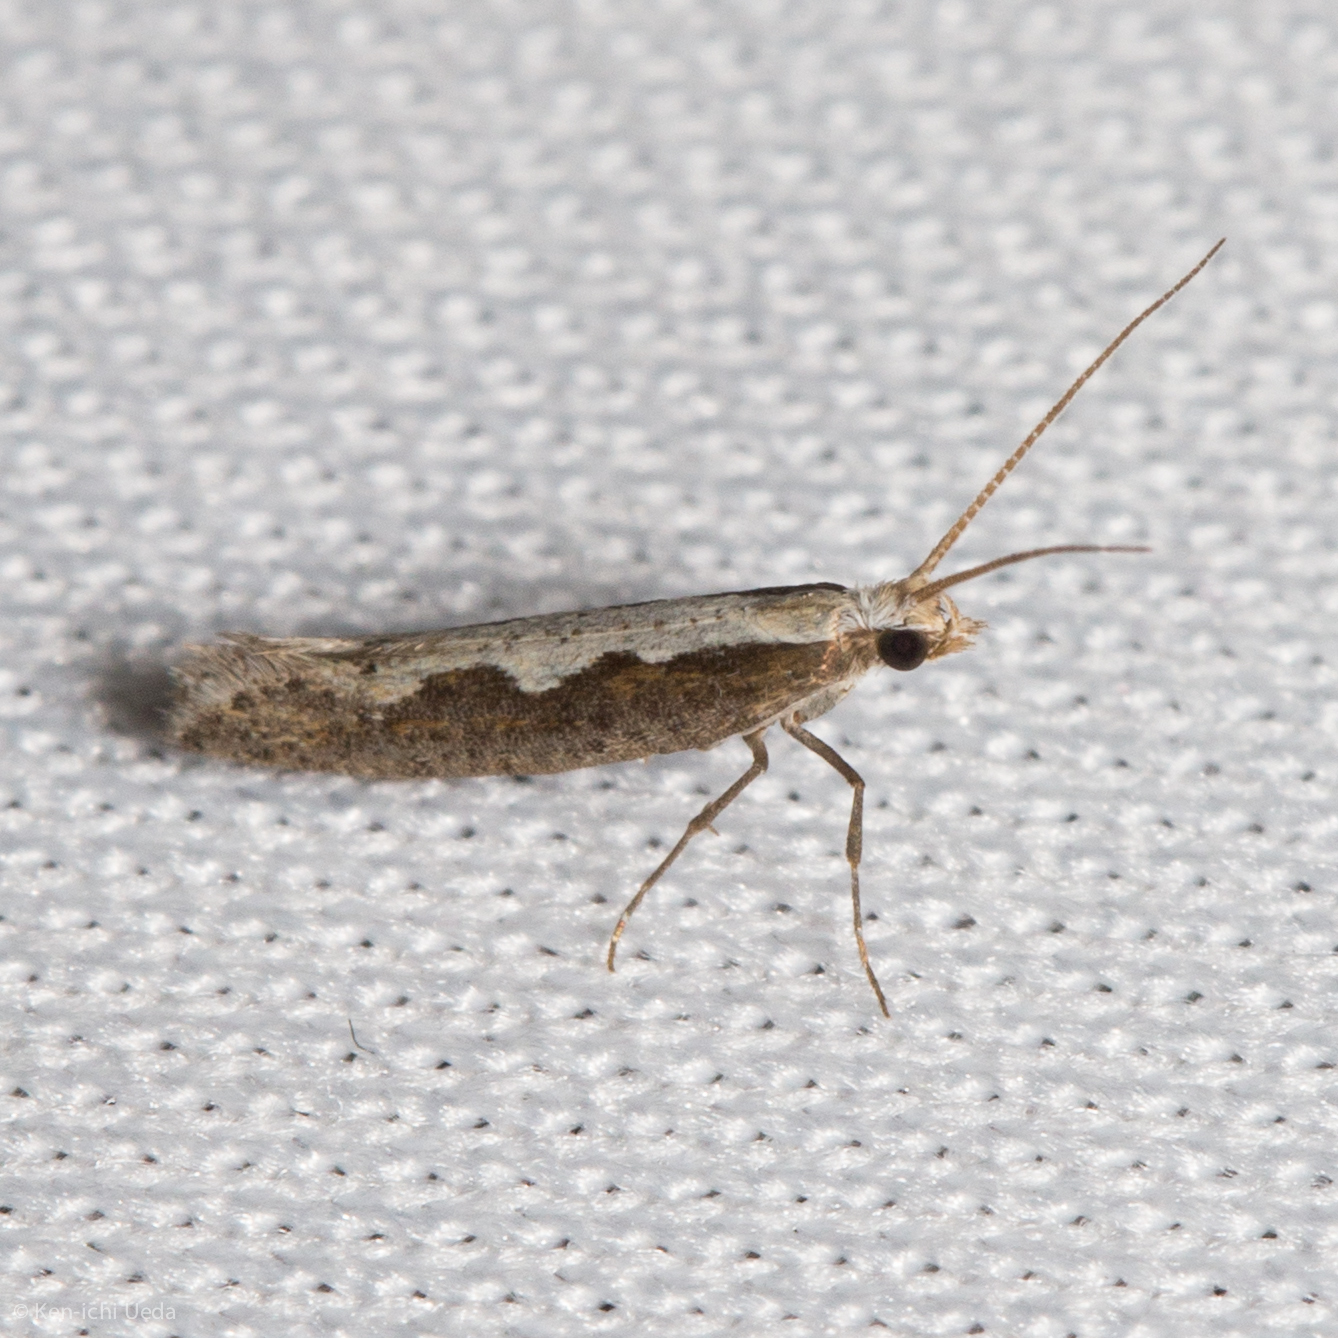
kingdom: Animalia
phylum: Arthropoda
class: Insecta
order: Lepidoptera
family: Plutellidae
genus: Plutella
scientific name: Plutella xylostella
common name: Diamond-back moth
